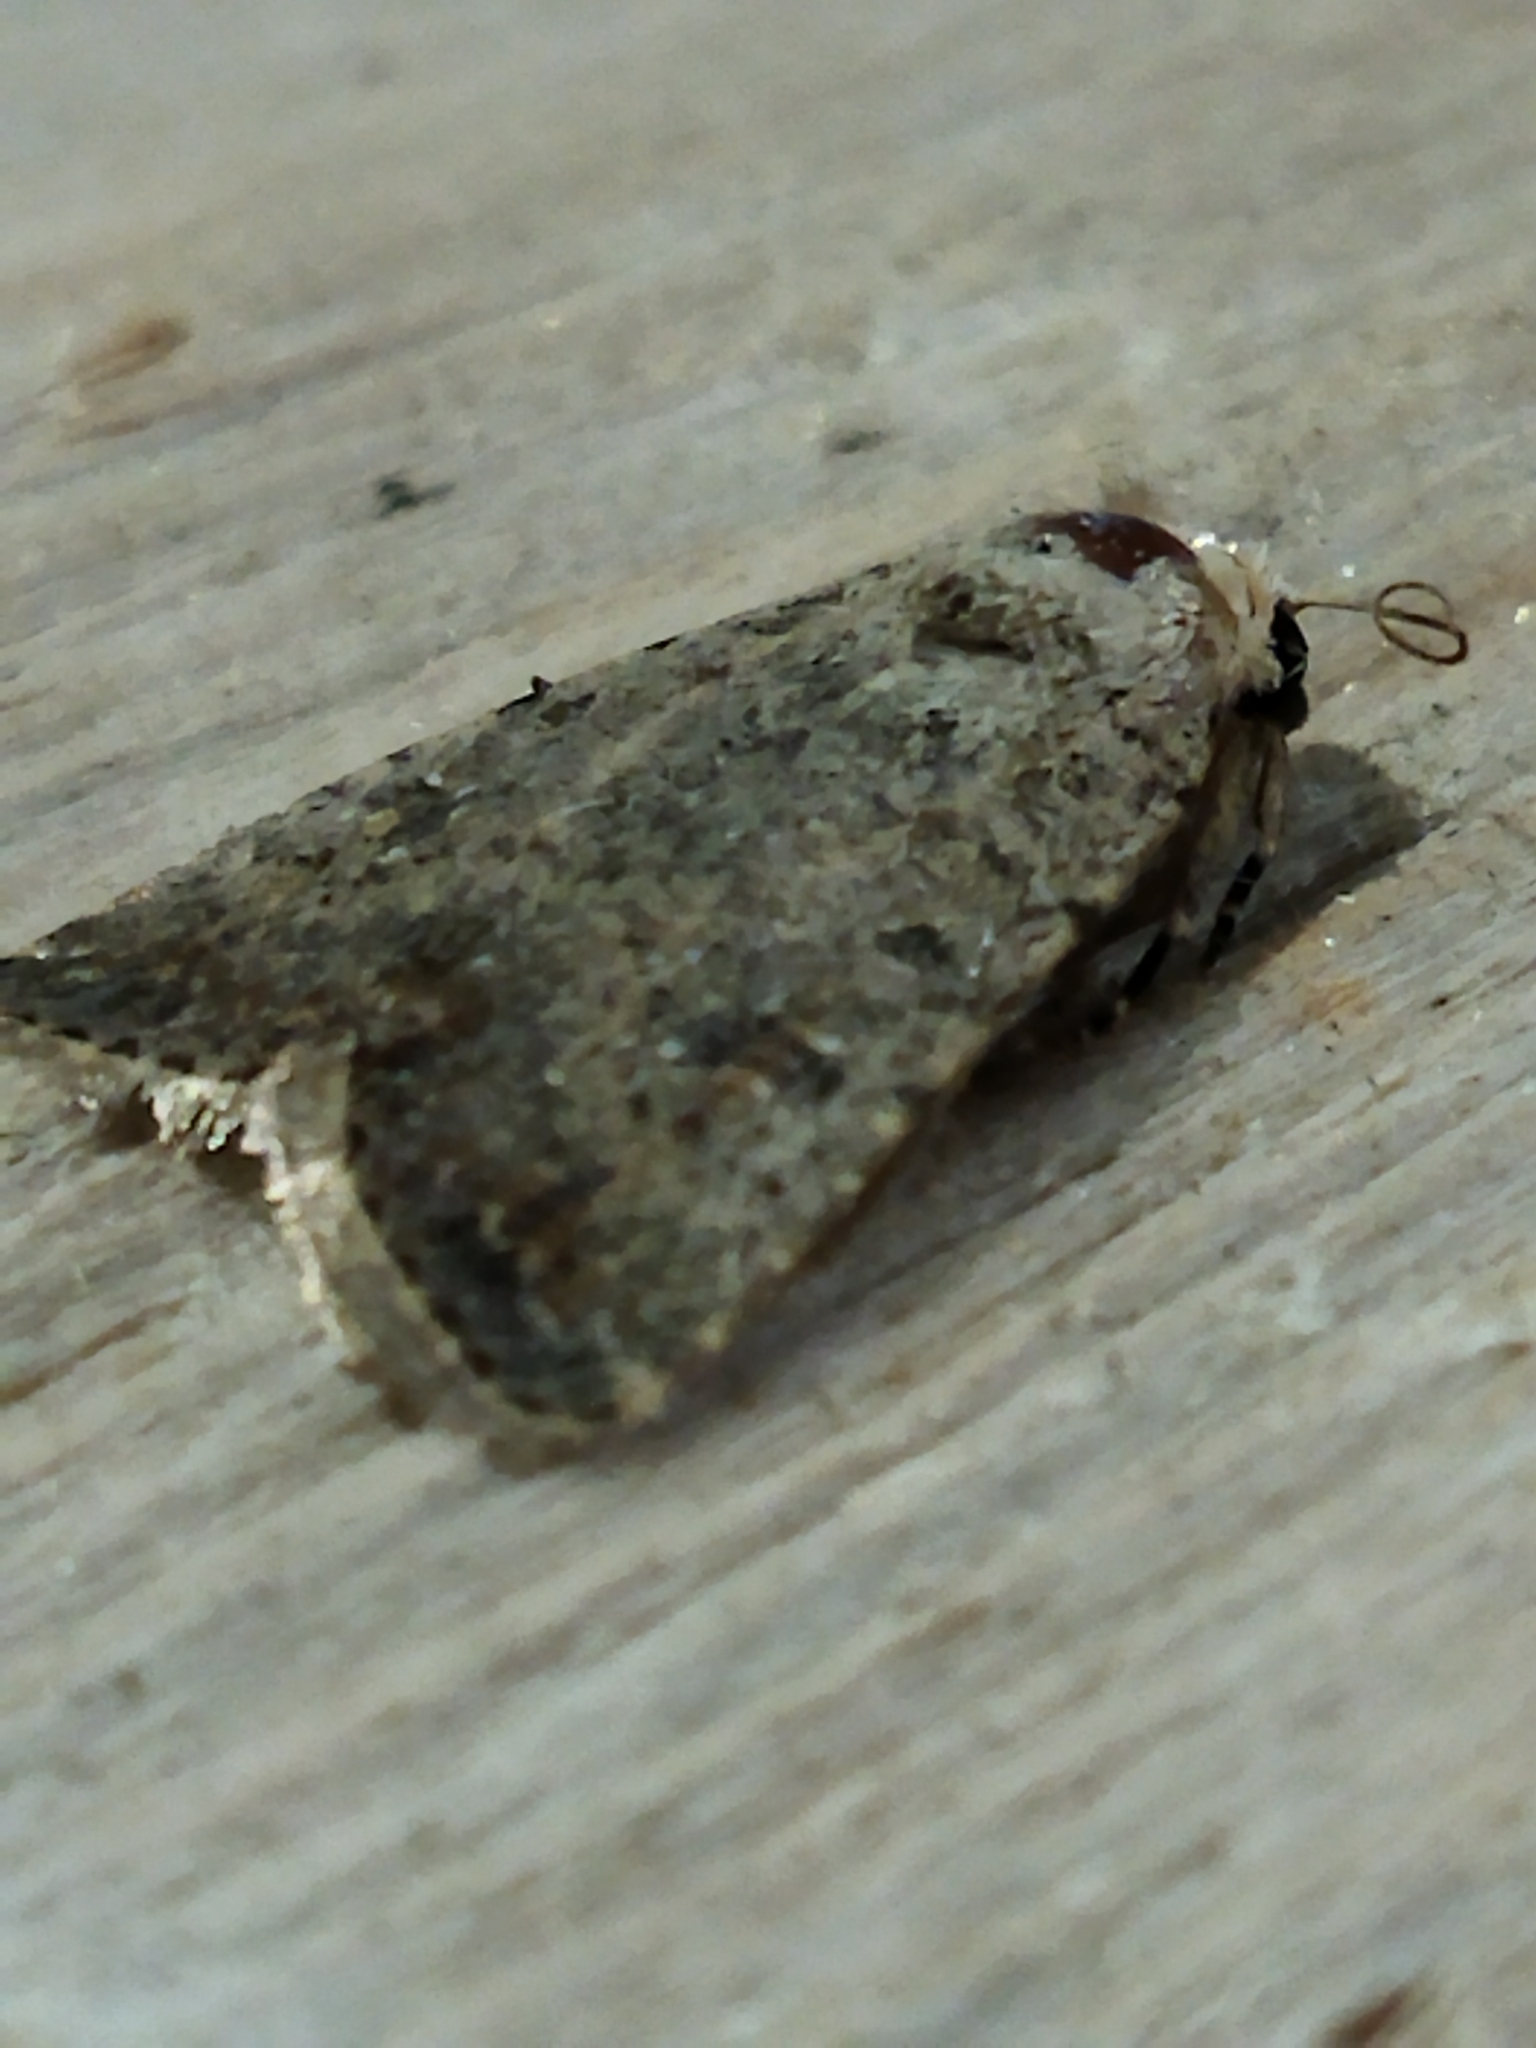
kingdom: Animalia
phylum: Arthropoda
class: Insecta
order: Lepidoptera
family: Noctuidae
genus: Caradrina
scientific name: Caradrina clavipalpis
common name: Pale mottled willow
